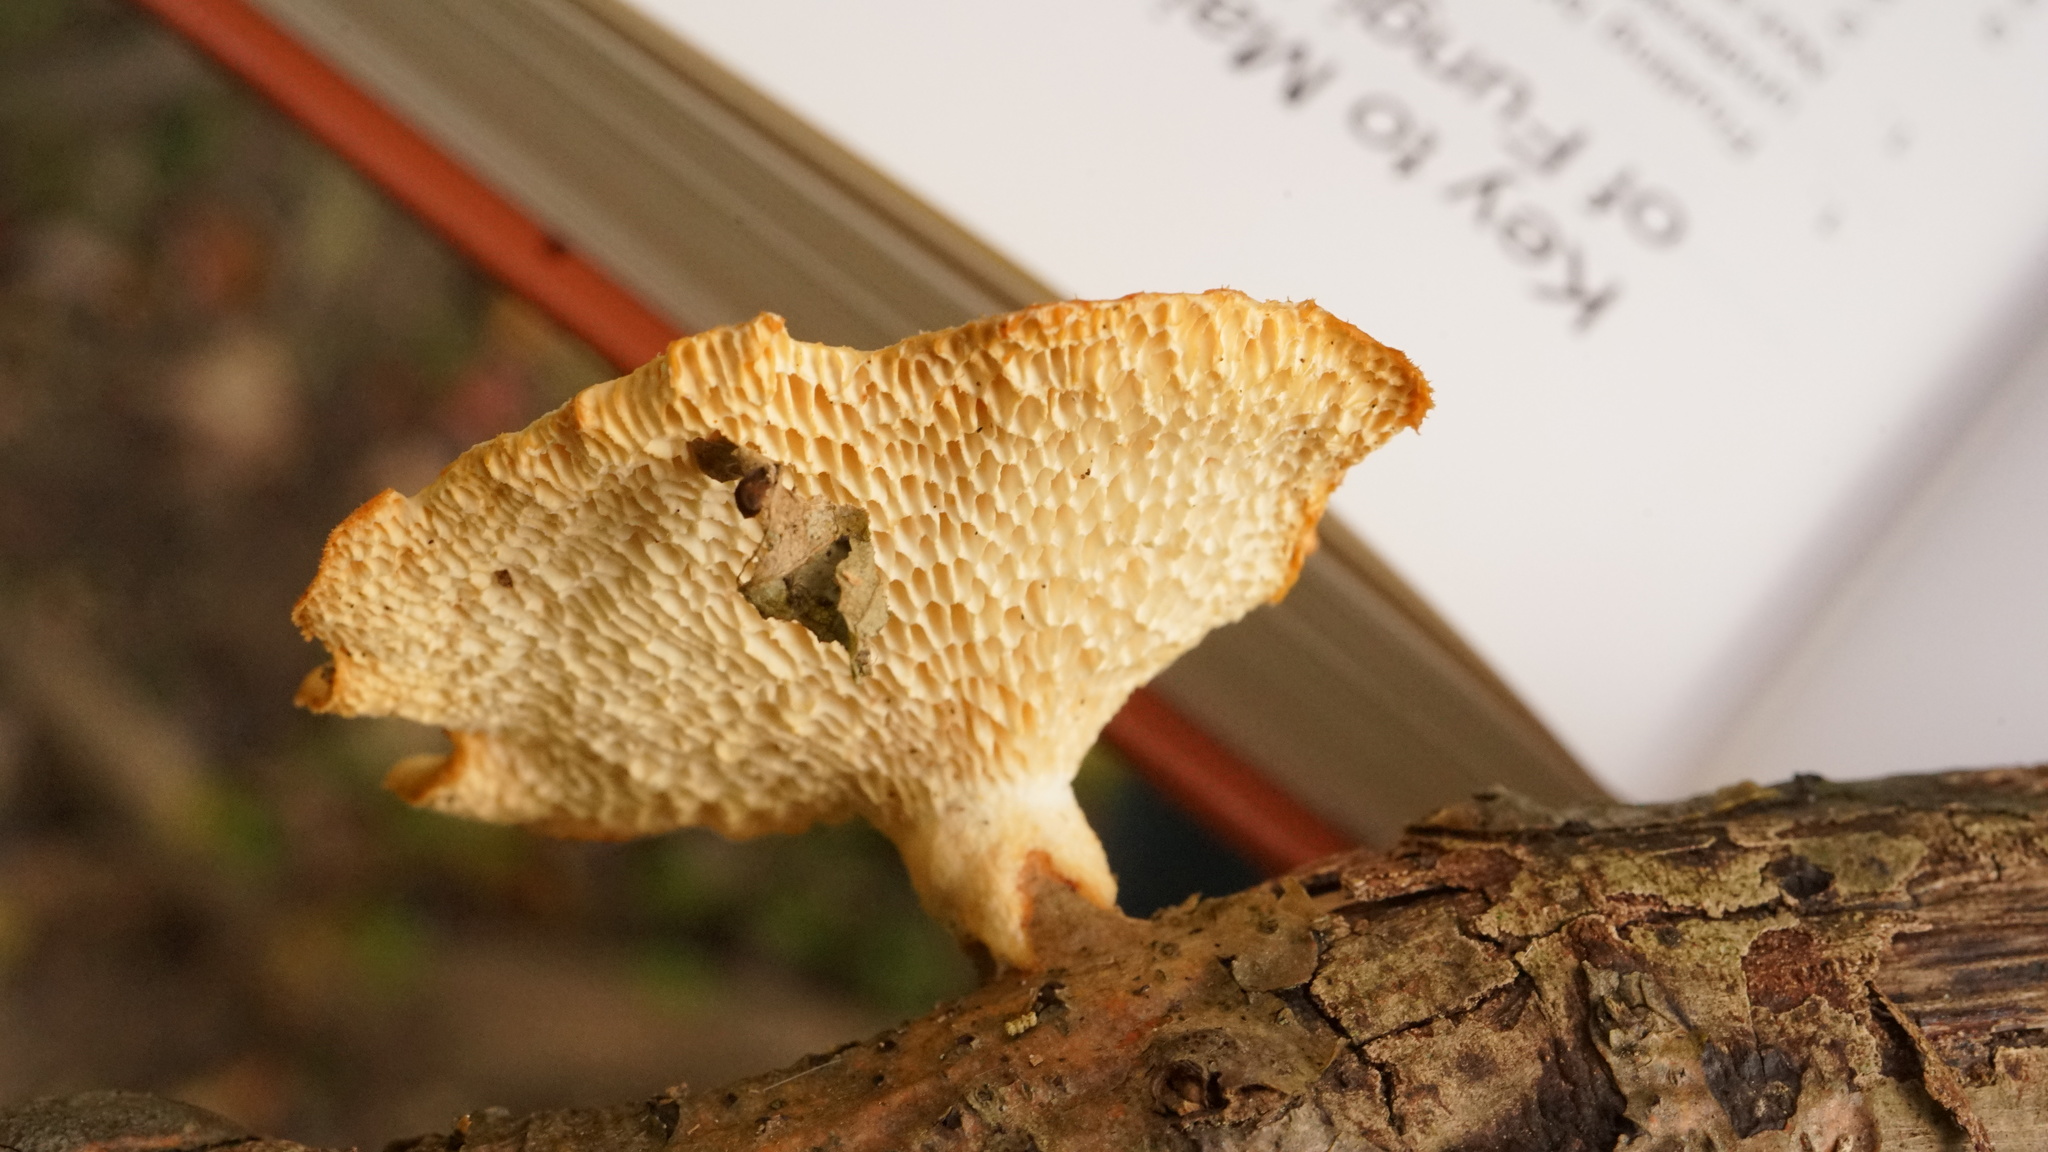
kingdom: Fungi
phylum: Basidiomycota
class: Agaricomycetes
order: Polyporales
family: Polyporaceae
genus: Neofavolus
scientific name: Neofavolus alveolaris
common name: Hexagonal-pored polypore
